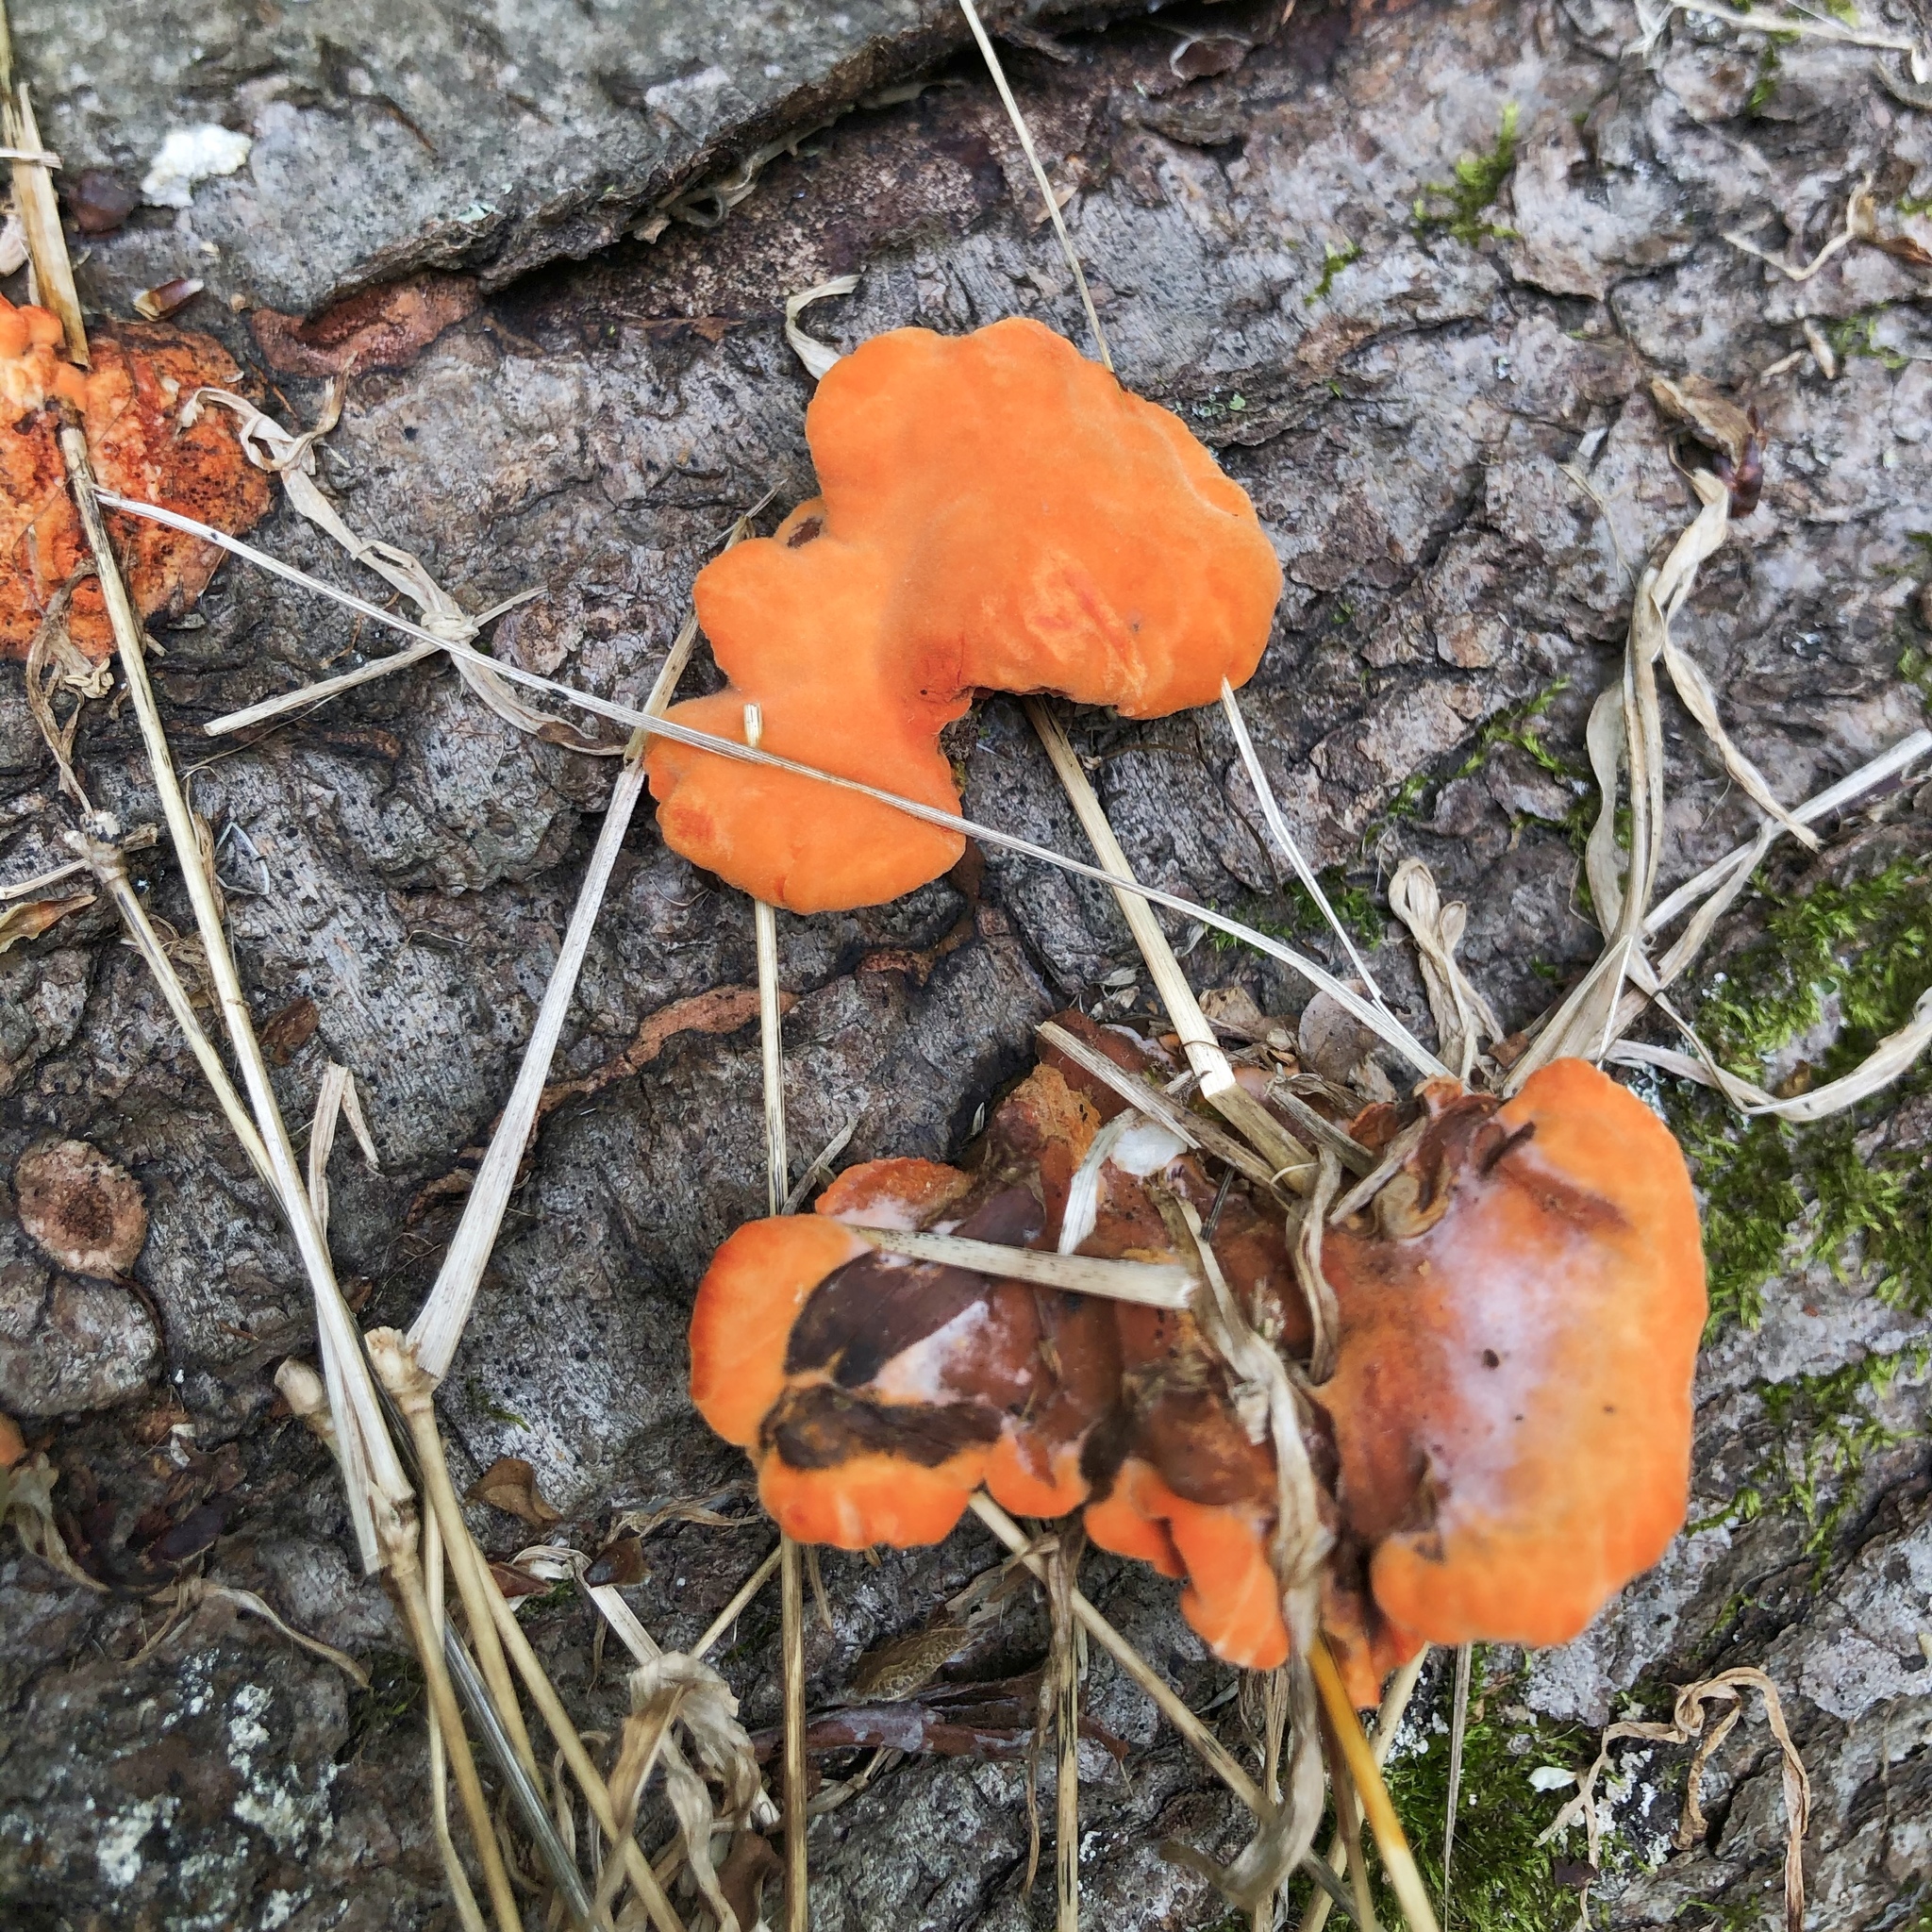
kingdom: Fungi
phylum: Basidiomycota
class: Agaricomycetes
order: Polyporales
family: Polyporaceae
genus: Trametes
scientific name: Trametes cinnabarina
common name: Northern cinnabar polypore
